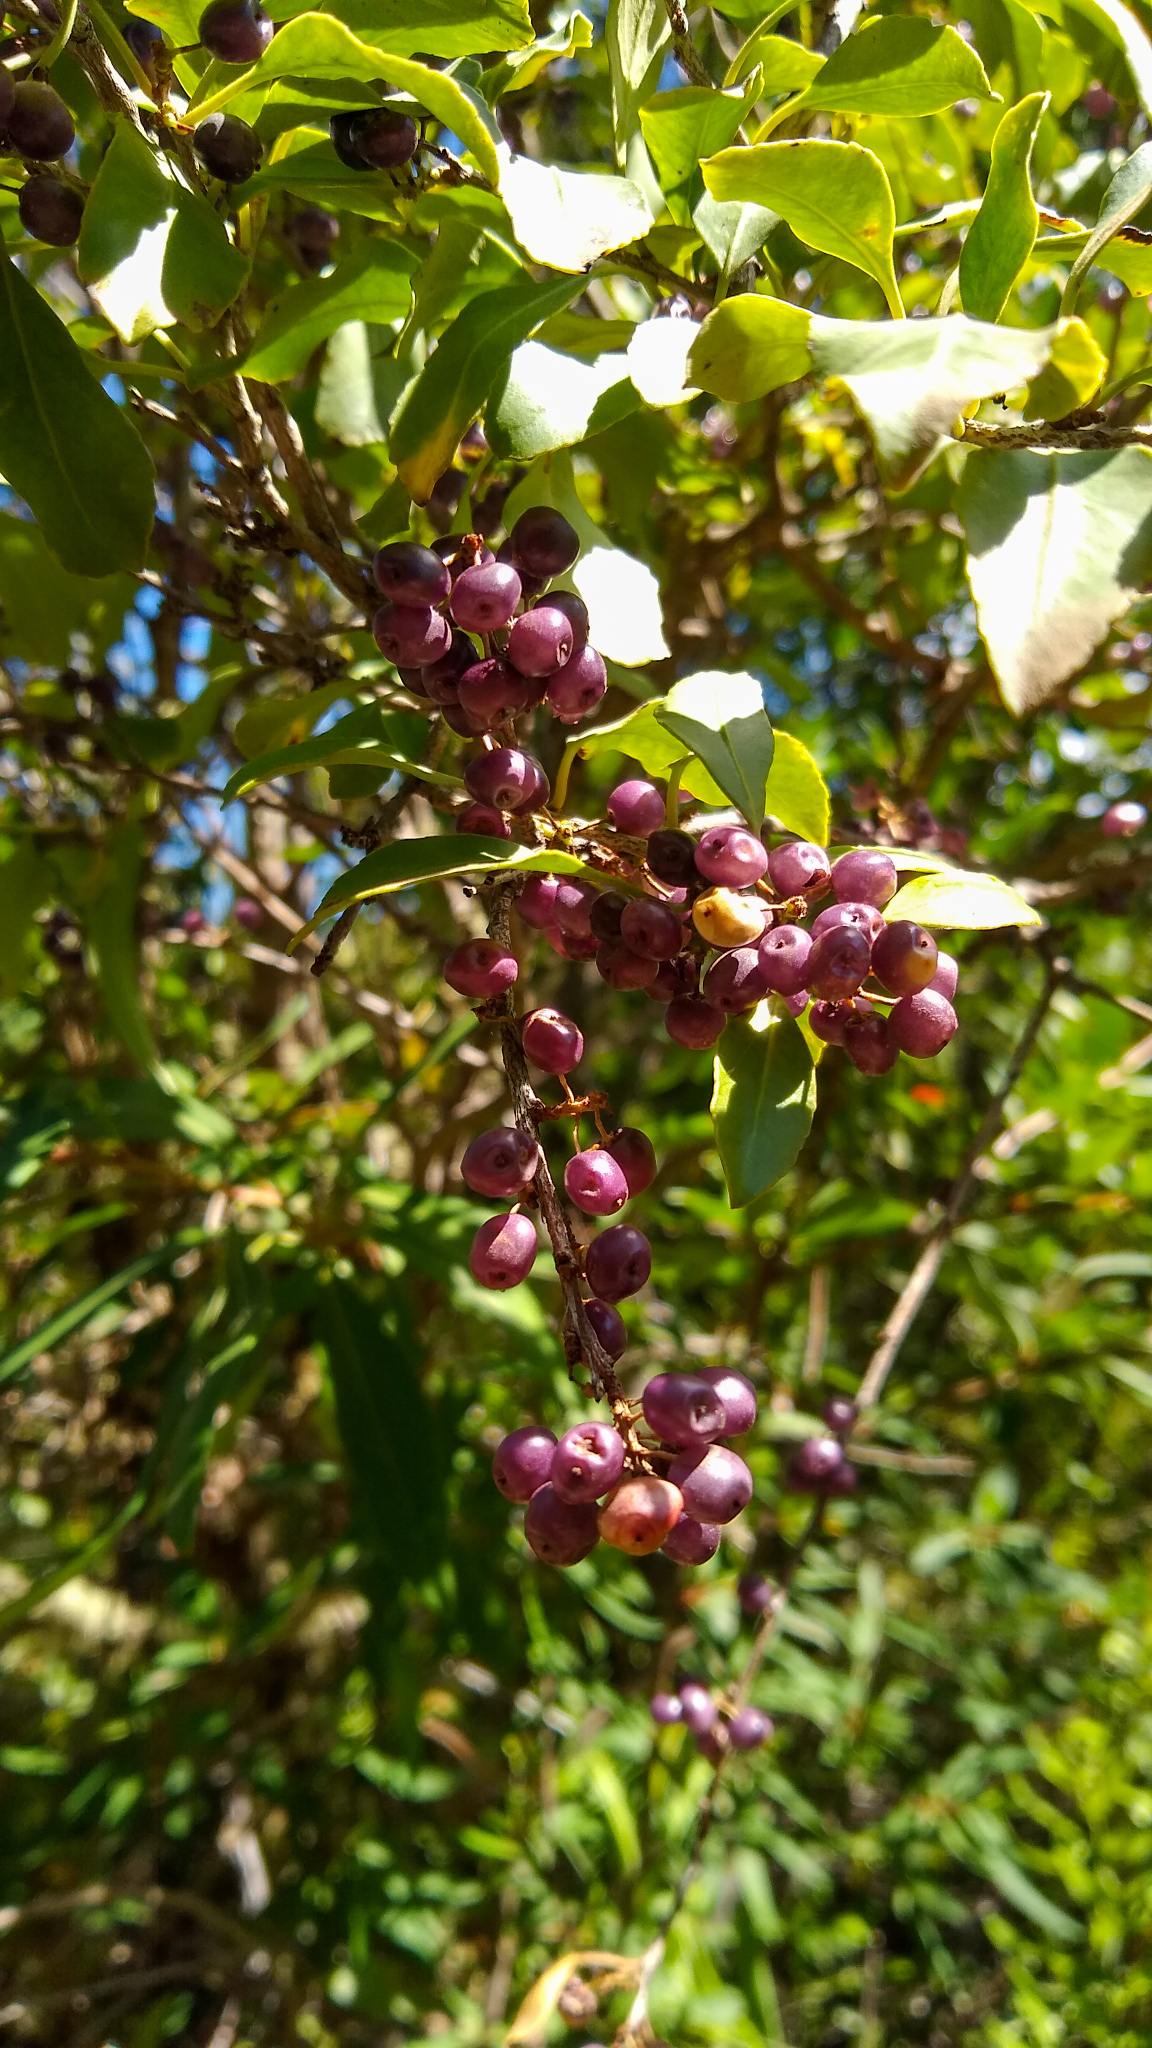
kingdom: Plantae
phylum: Tracheophyta
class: Magnoliopsida
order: Sapindales
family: Anacardiaceae
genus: Schinus
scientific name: Schinus patagonica
